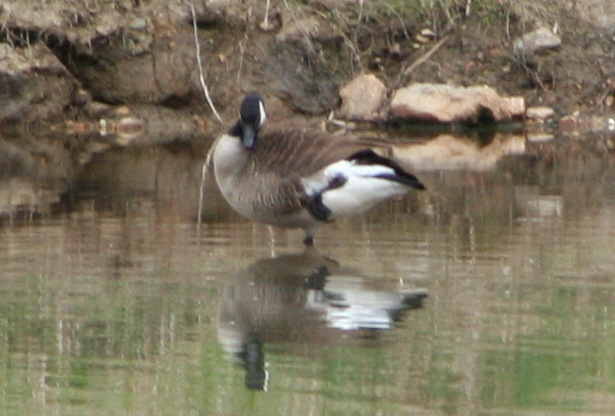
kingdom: Animalia
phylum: Chordata
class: Aves
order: Anseriformes
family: Anatidae
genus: Branta
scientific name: Branta canadensis
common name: Canada goose
